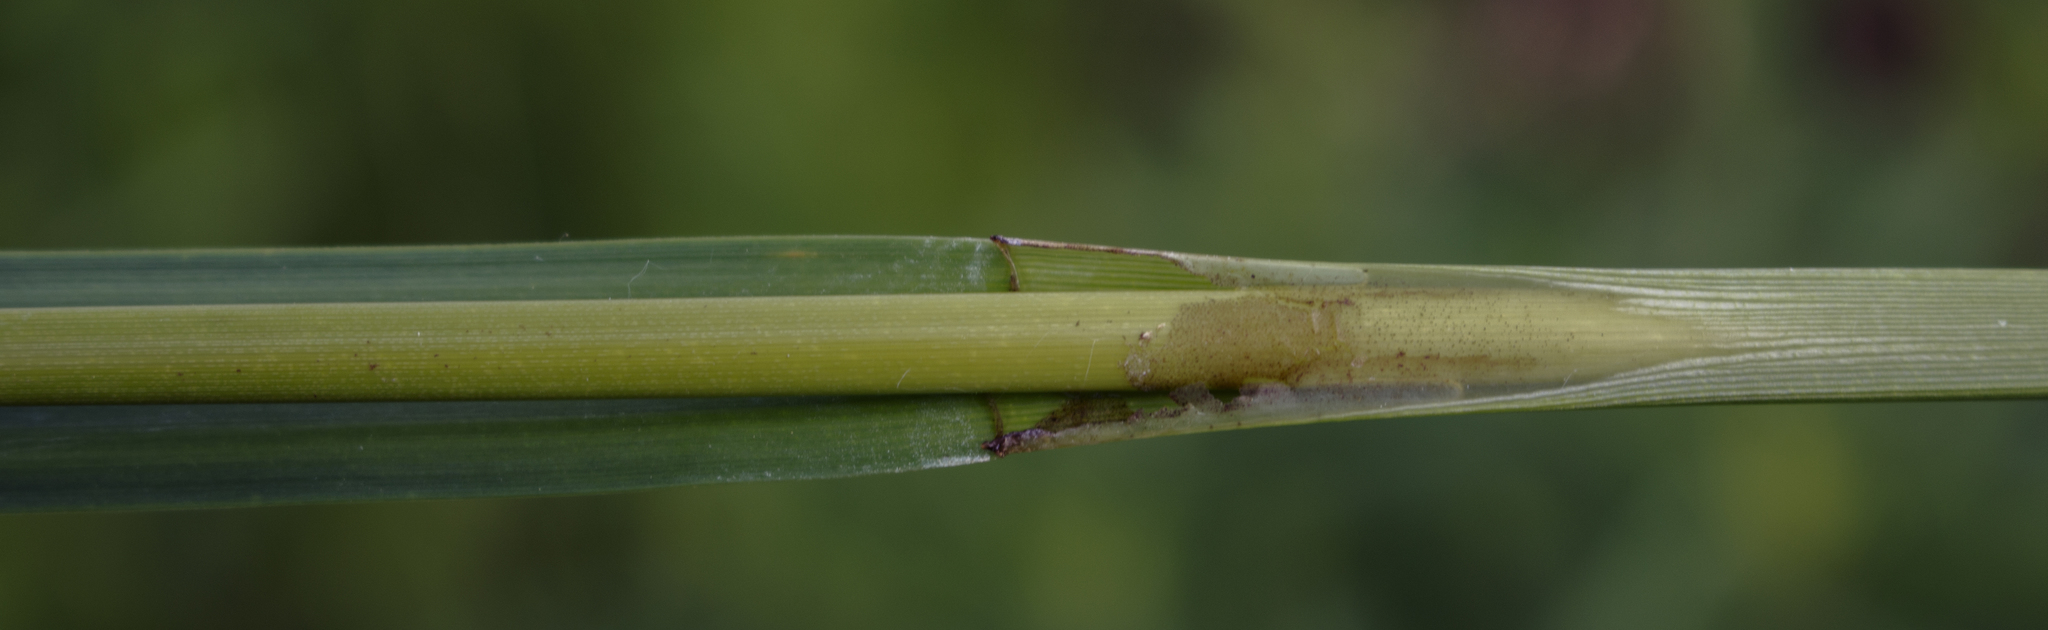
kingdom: Plantae
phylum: Tracheophyta
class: Liliopsida
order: Poales
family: Cyperaceae
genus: Scirpus
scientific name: Scirpus hattorianus
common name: Early dark-green bulrush
